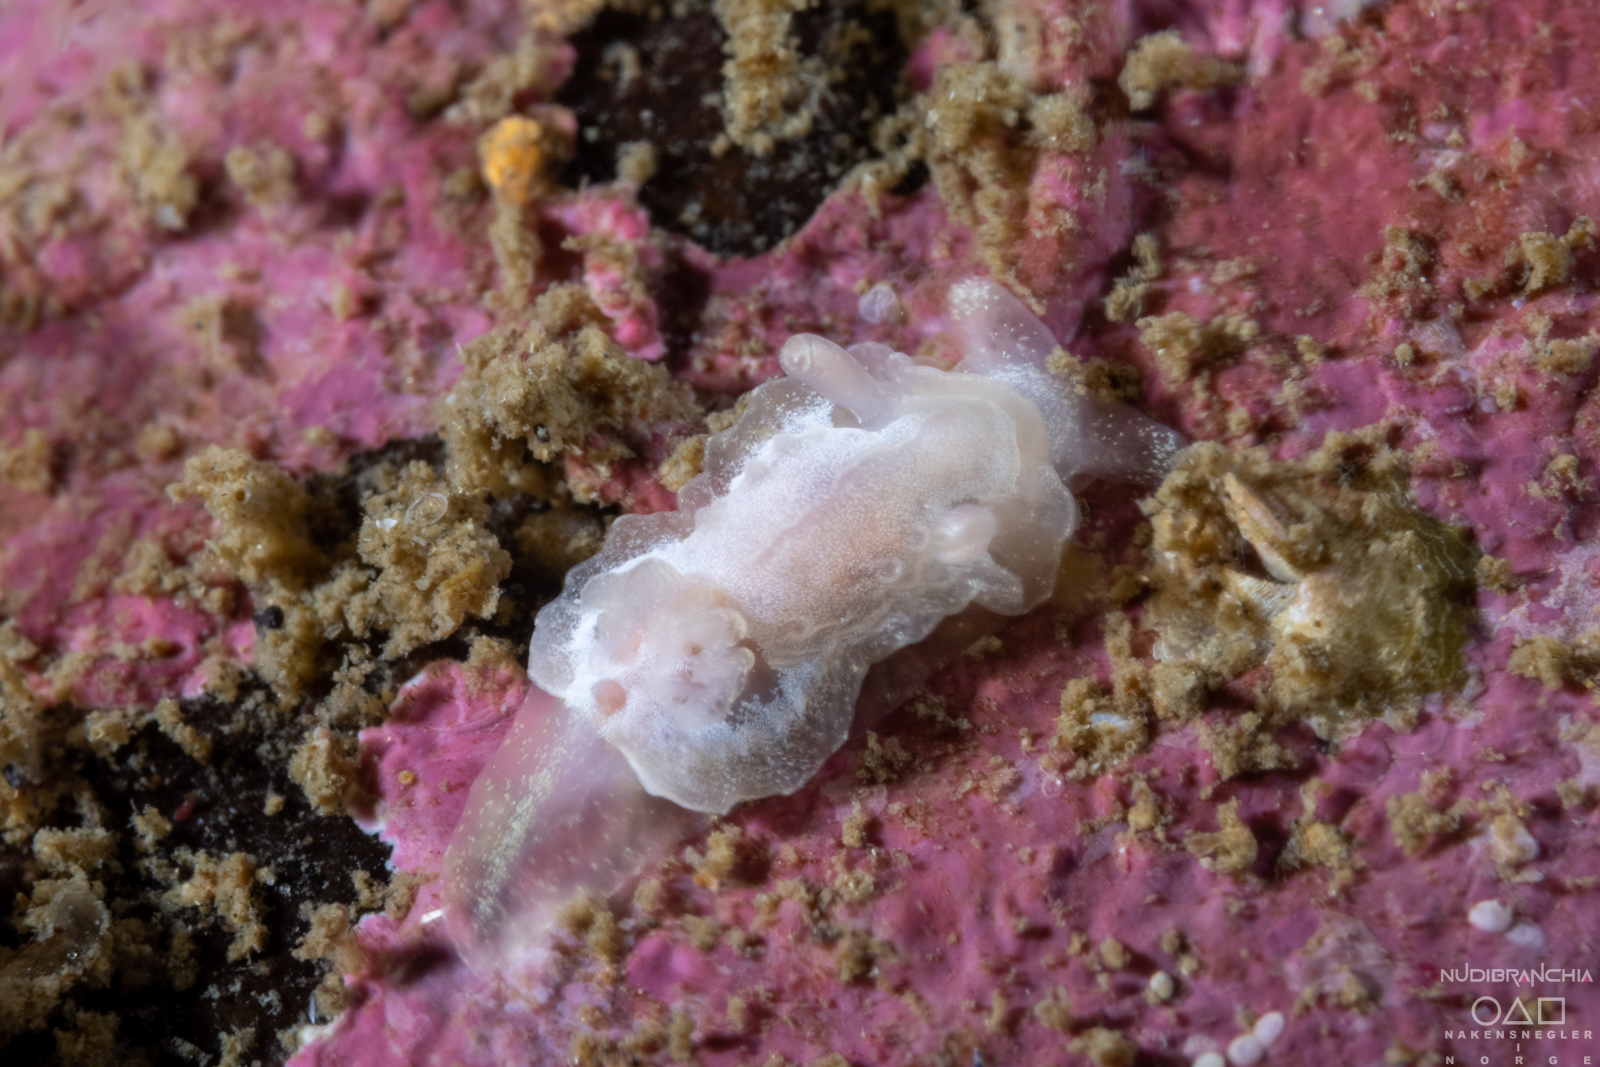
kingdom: Animalia
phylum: Mollusca
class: Gastropoda
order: Nudibranchia
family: Goniodorididae
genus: Okenia
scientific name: Okenia
